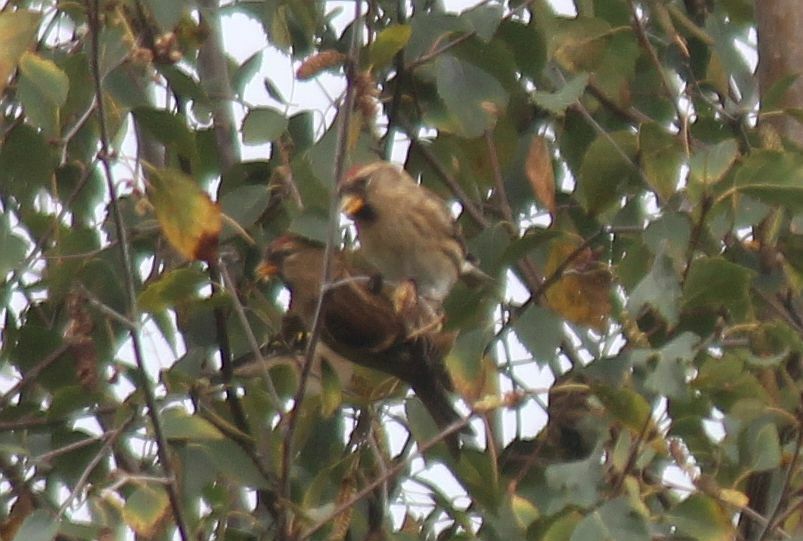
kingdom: Animalia
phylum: Chordata
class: Aves
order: Passeriformes
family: Fringillidae
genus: Acanthis
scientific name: Acanthis flammea
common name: Common redpoll
